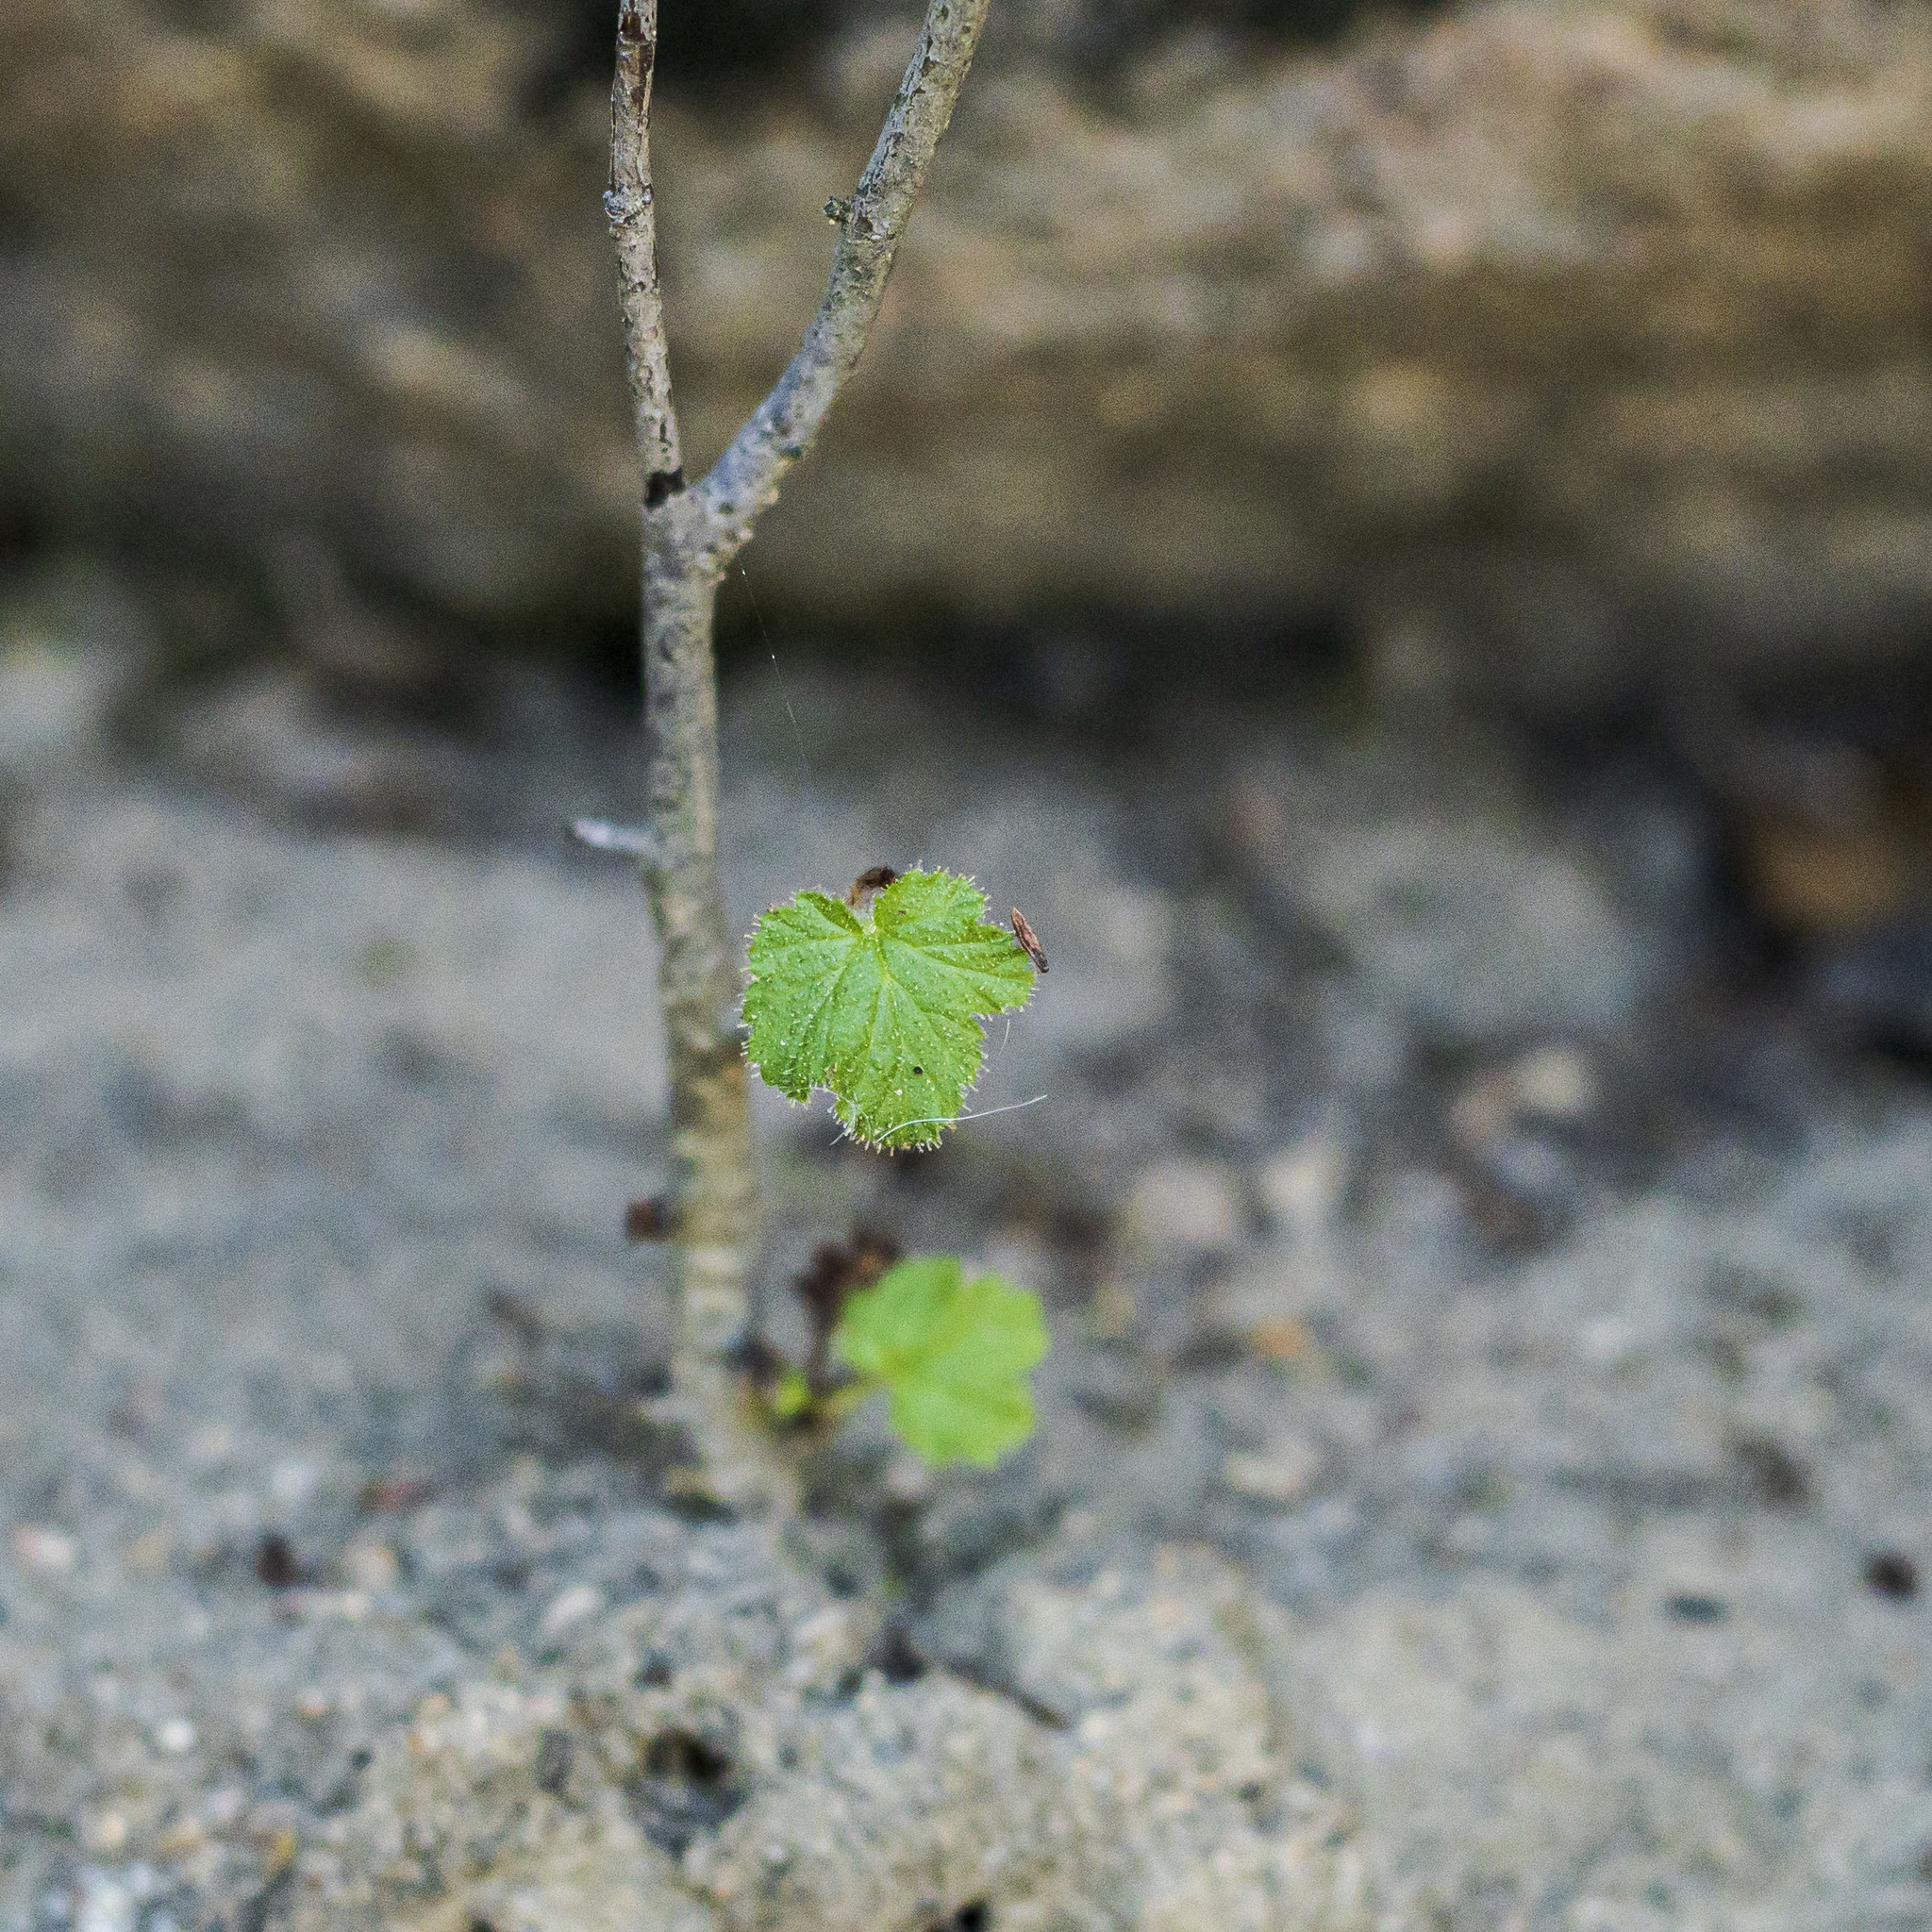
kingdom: Plantae
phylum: Tracheophyta
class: Magnoliopsida
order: Saxifragales
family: Grossulariaceae
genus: Ribes
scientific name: Ribes canthariforme
